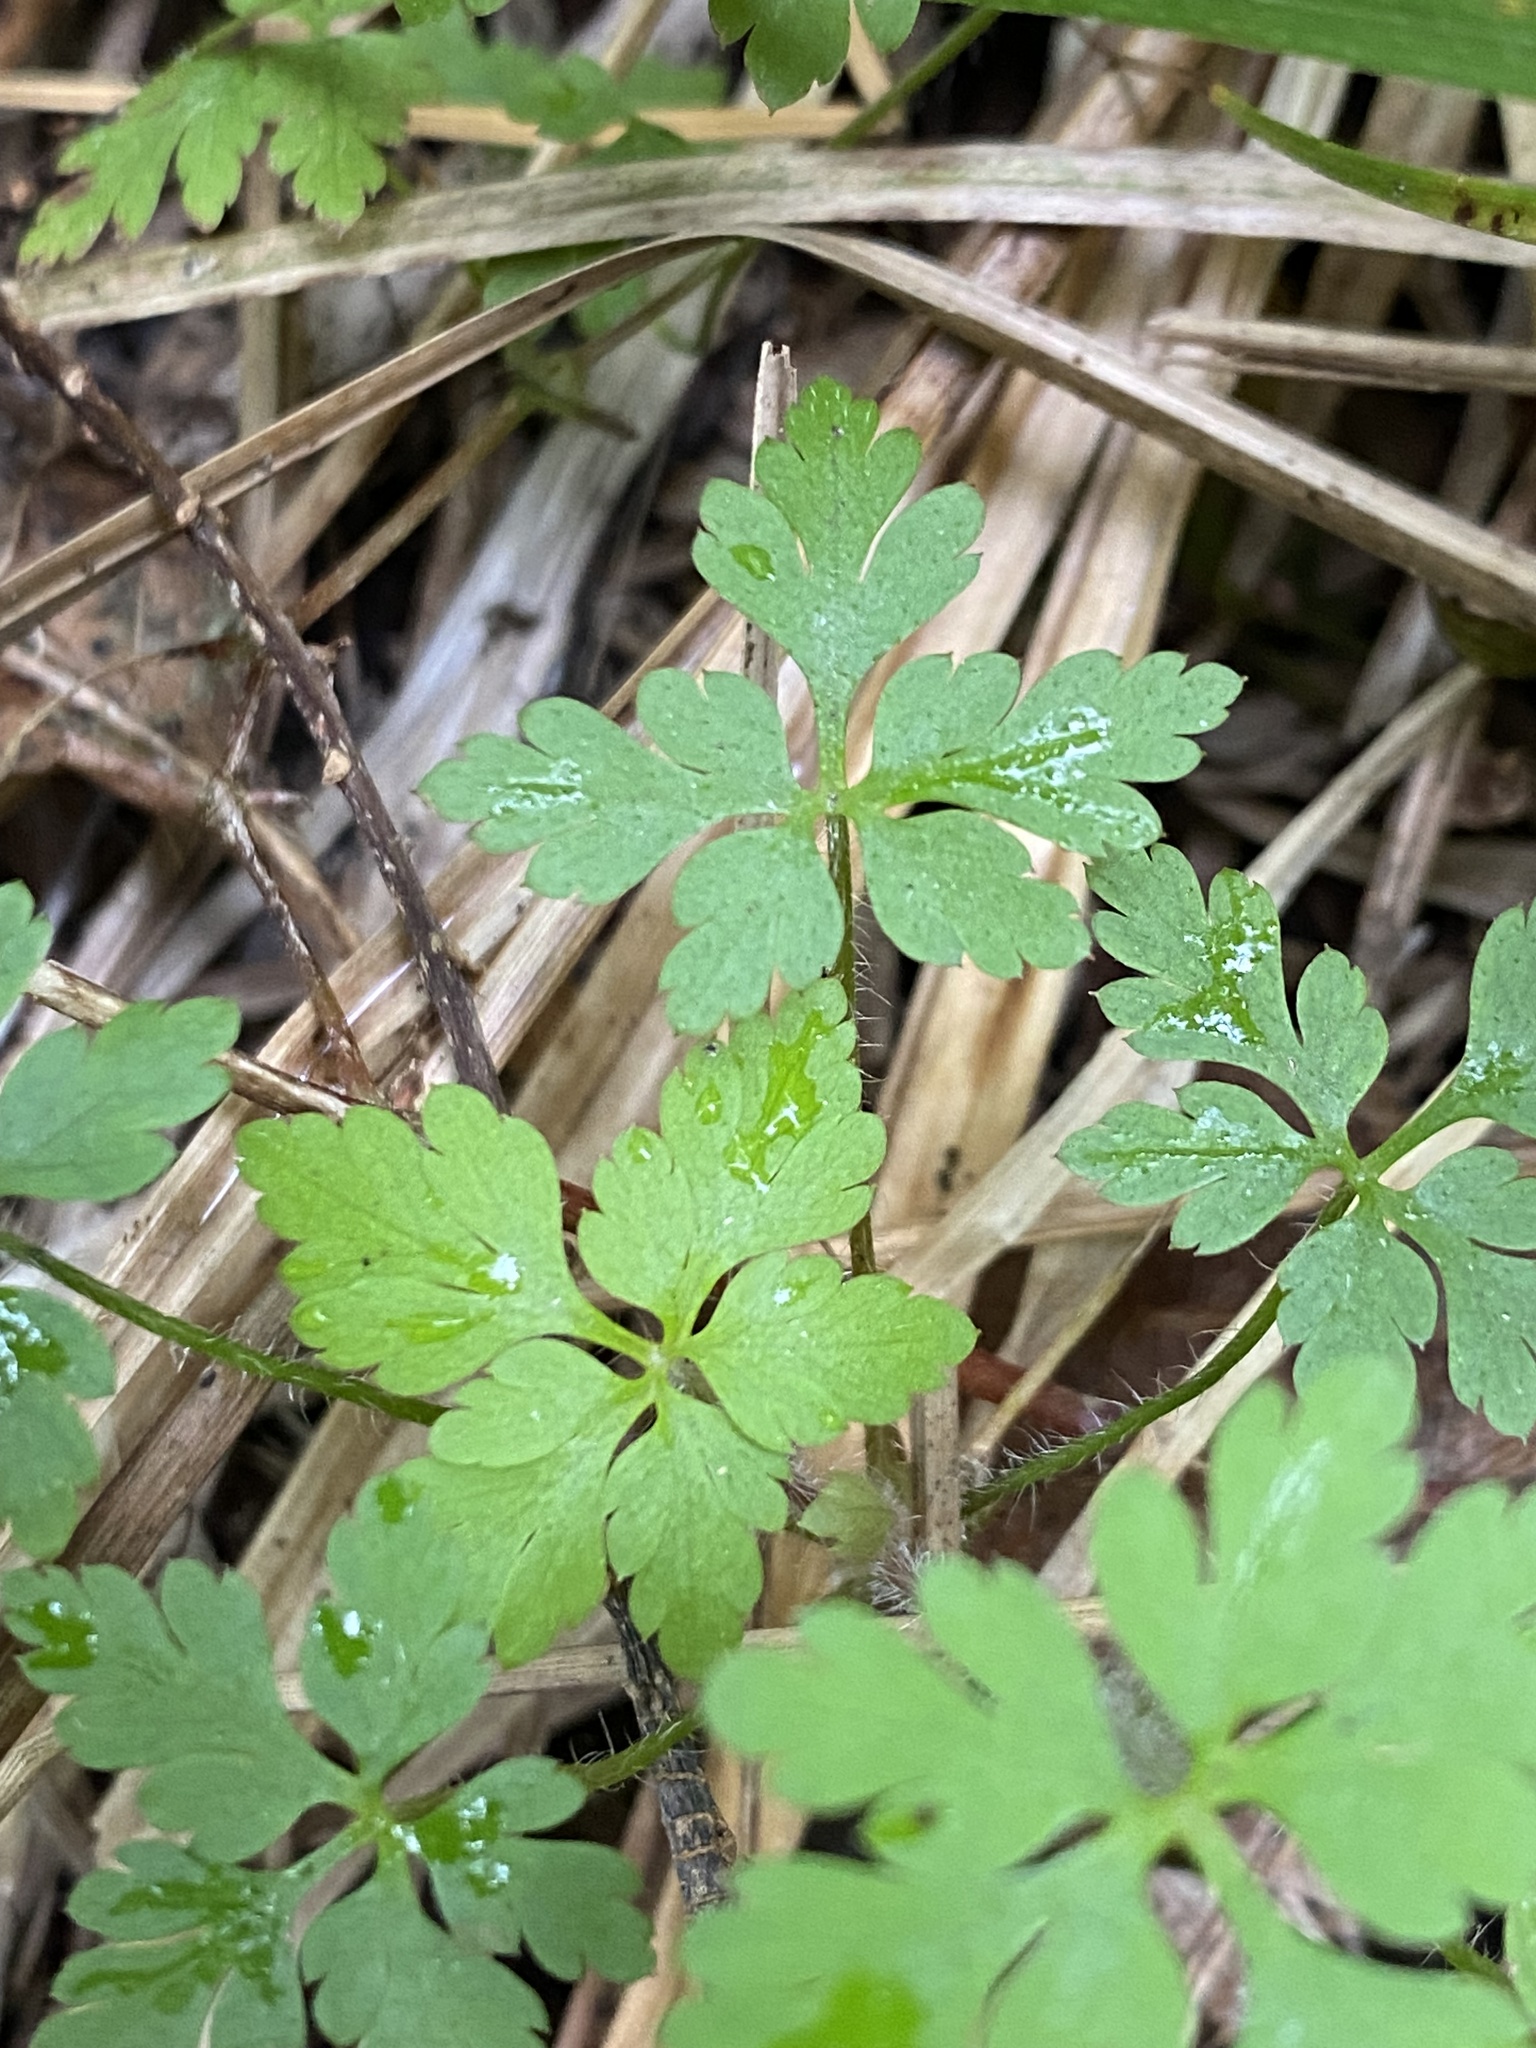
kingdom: Plantae
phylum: Tracheophyta
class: Magnoliopsida
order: Geraniales
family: Geraniaceae
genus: Geranium
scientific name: Geranium robertianum
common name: Herb-robert
